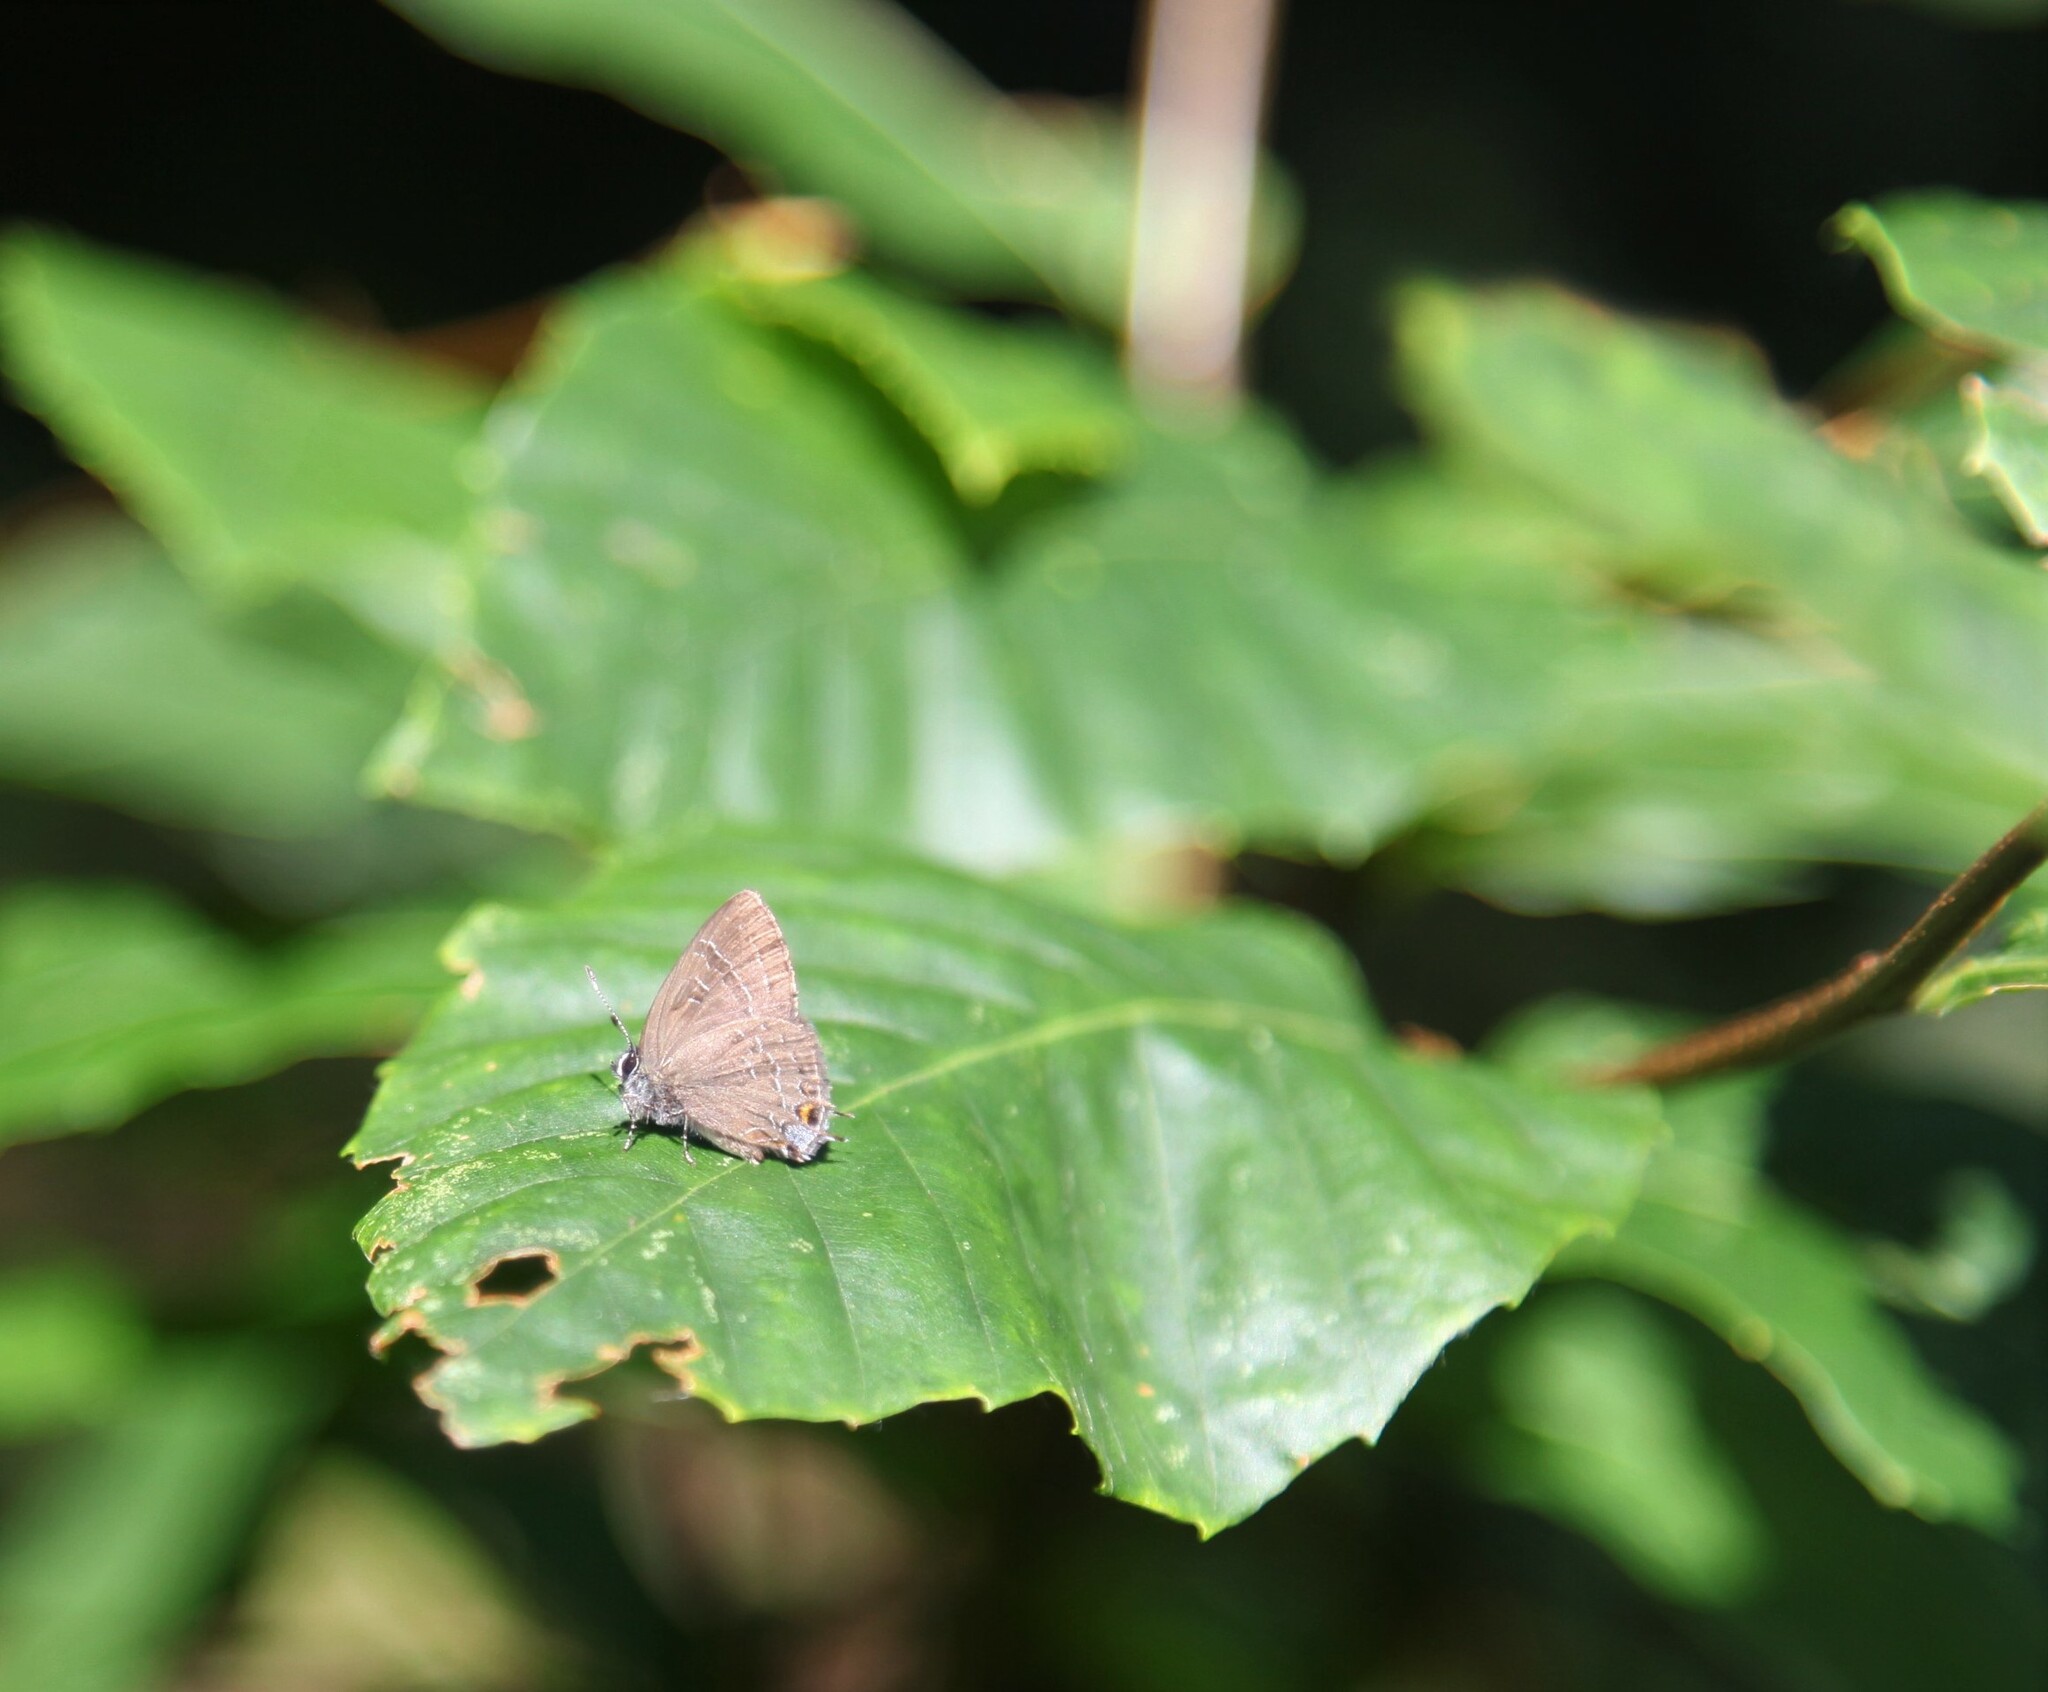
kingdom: Animalia
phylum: Arthropoda
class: Insecta
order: Lepidoptera
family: Lycaenidae
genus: Satyrium
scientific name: Satyrium calanus
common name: Banded hairstreak
